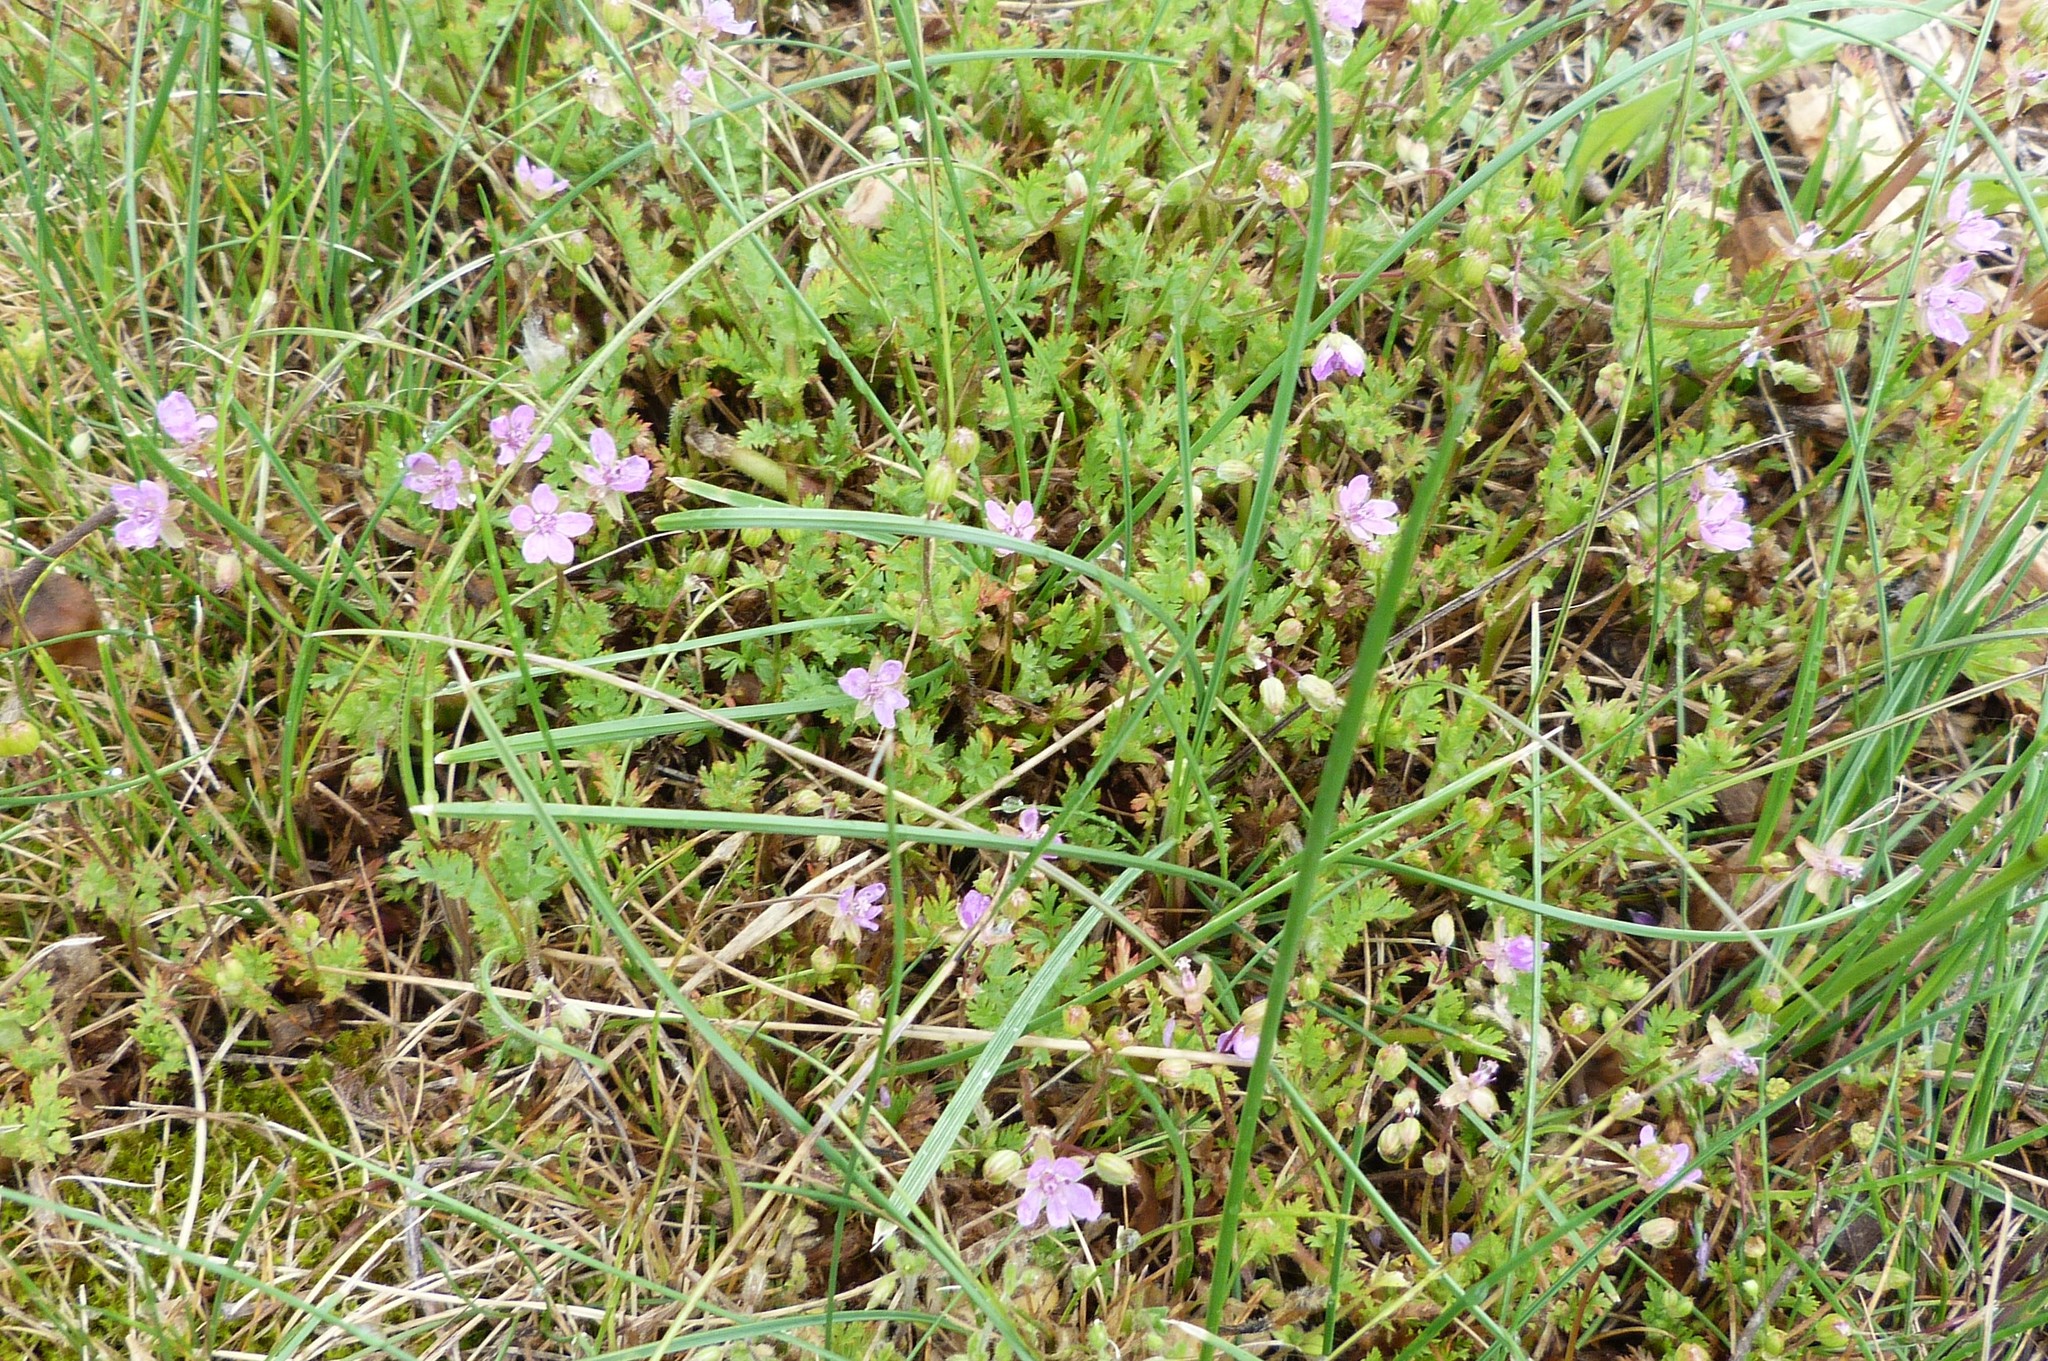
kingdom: Plantae
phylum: Tracheophyta
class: Magnoliopsida
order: Geraniales
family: Geraniaceae
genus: Erodium
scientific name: Erodium cicutarium
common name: Common stork's-bill
